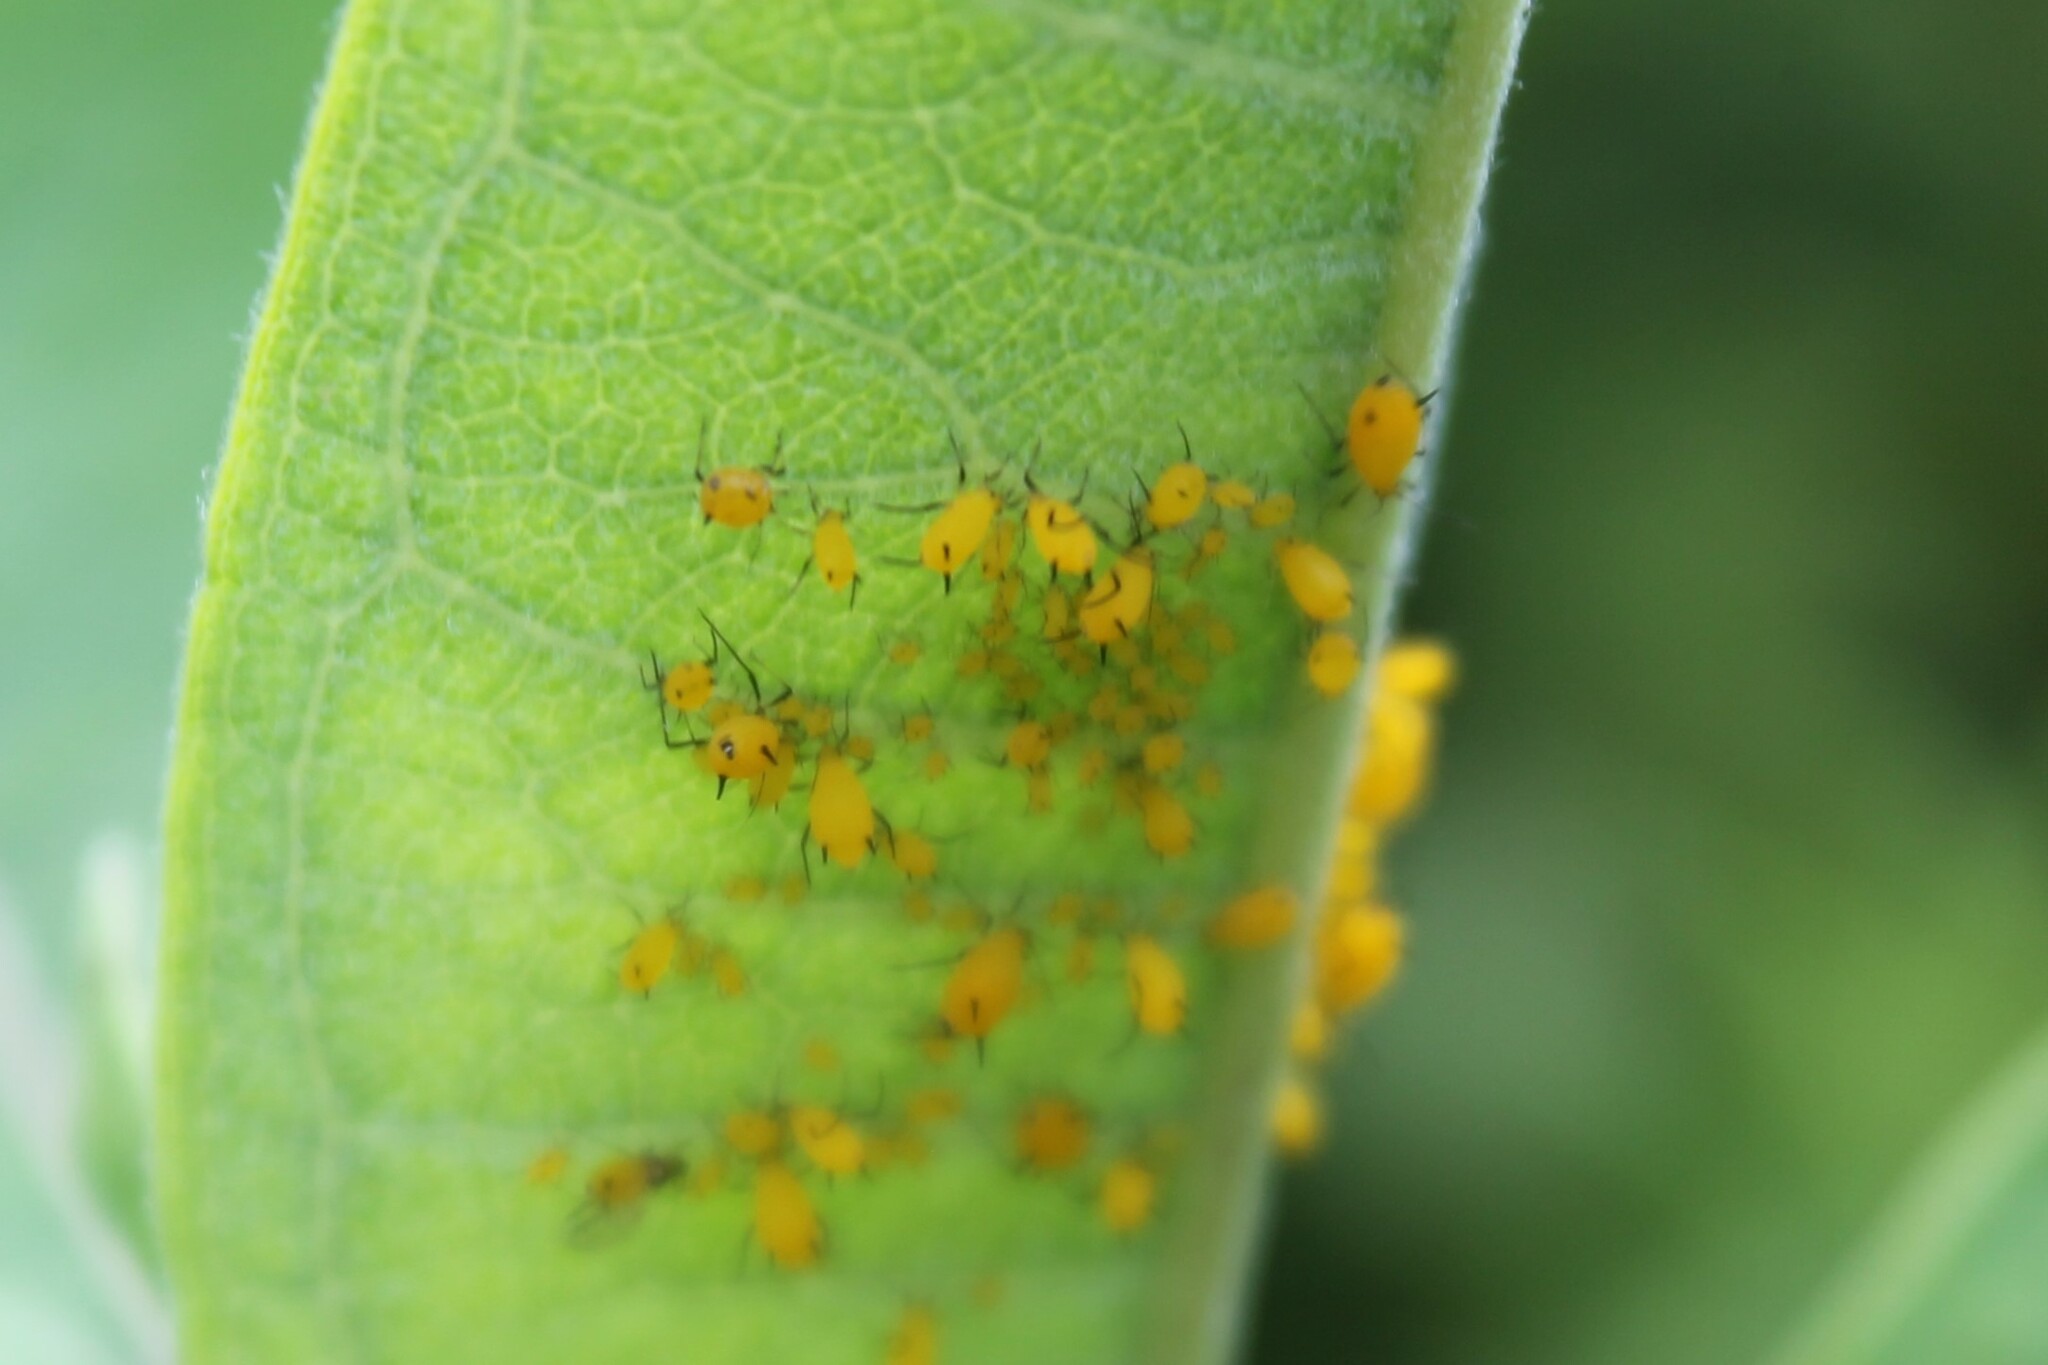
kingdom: Animalia
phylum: Arthropoda
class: Insecta
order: Hemiptera
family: Aphididae
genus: Aphis
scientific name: Aphis nerii
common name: Oleander aphid
